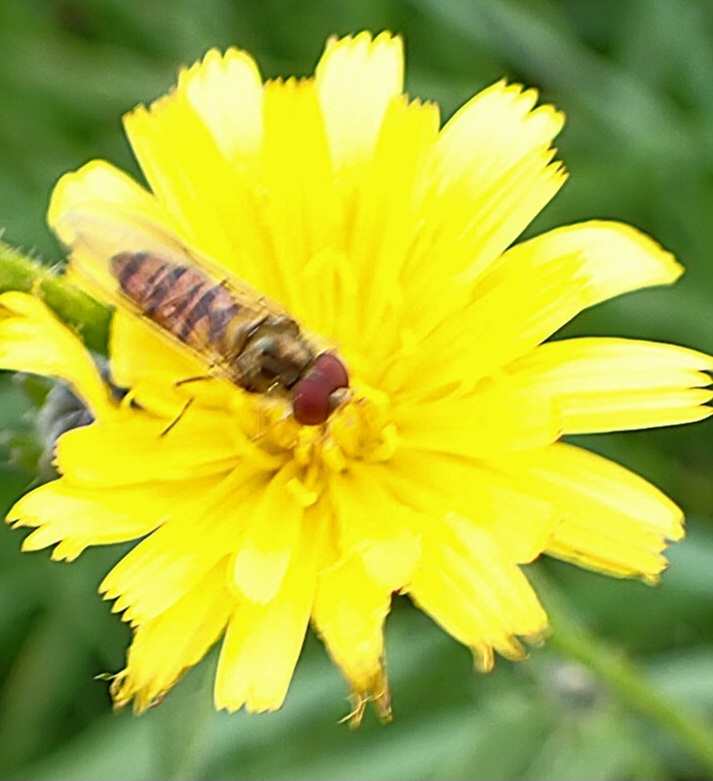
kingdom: Animalia
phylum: Arthropoda
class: Insecta
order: Diptera
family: Syrphidae
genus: Episyrphus
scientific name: Episyrphus balteatus
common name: Marmalade hoverfly
